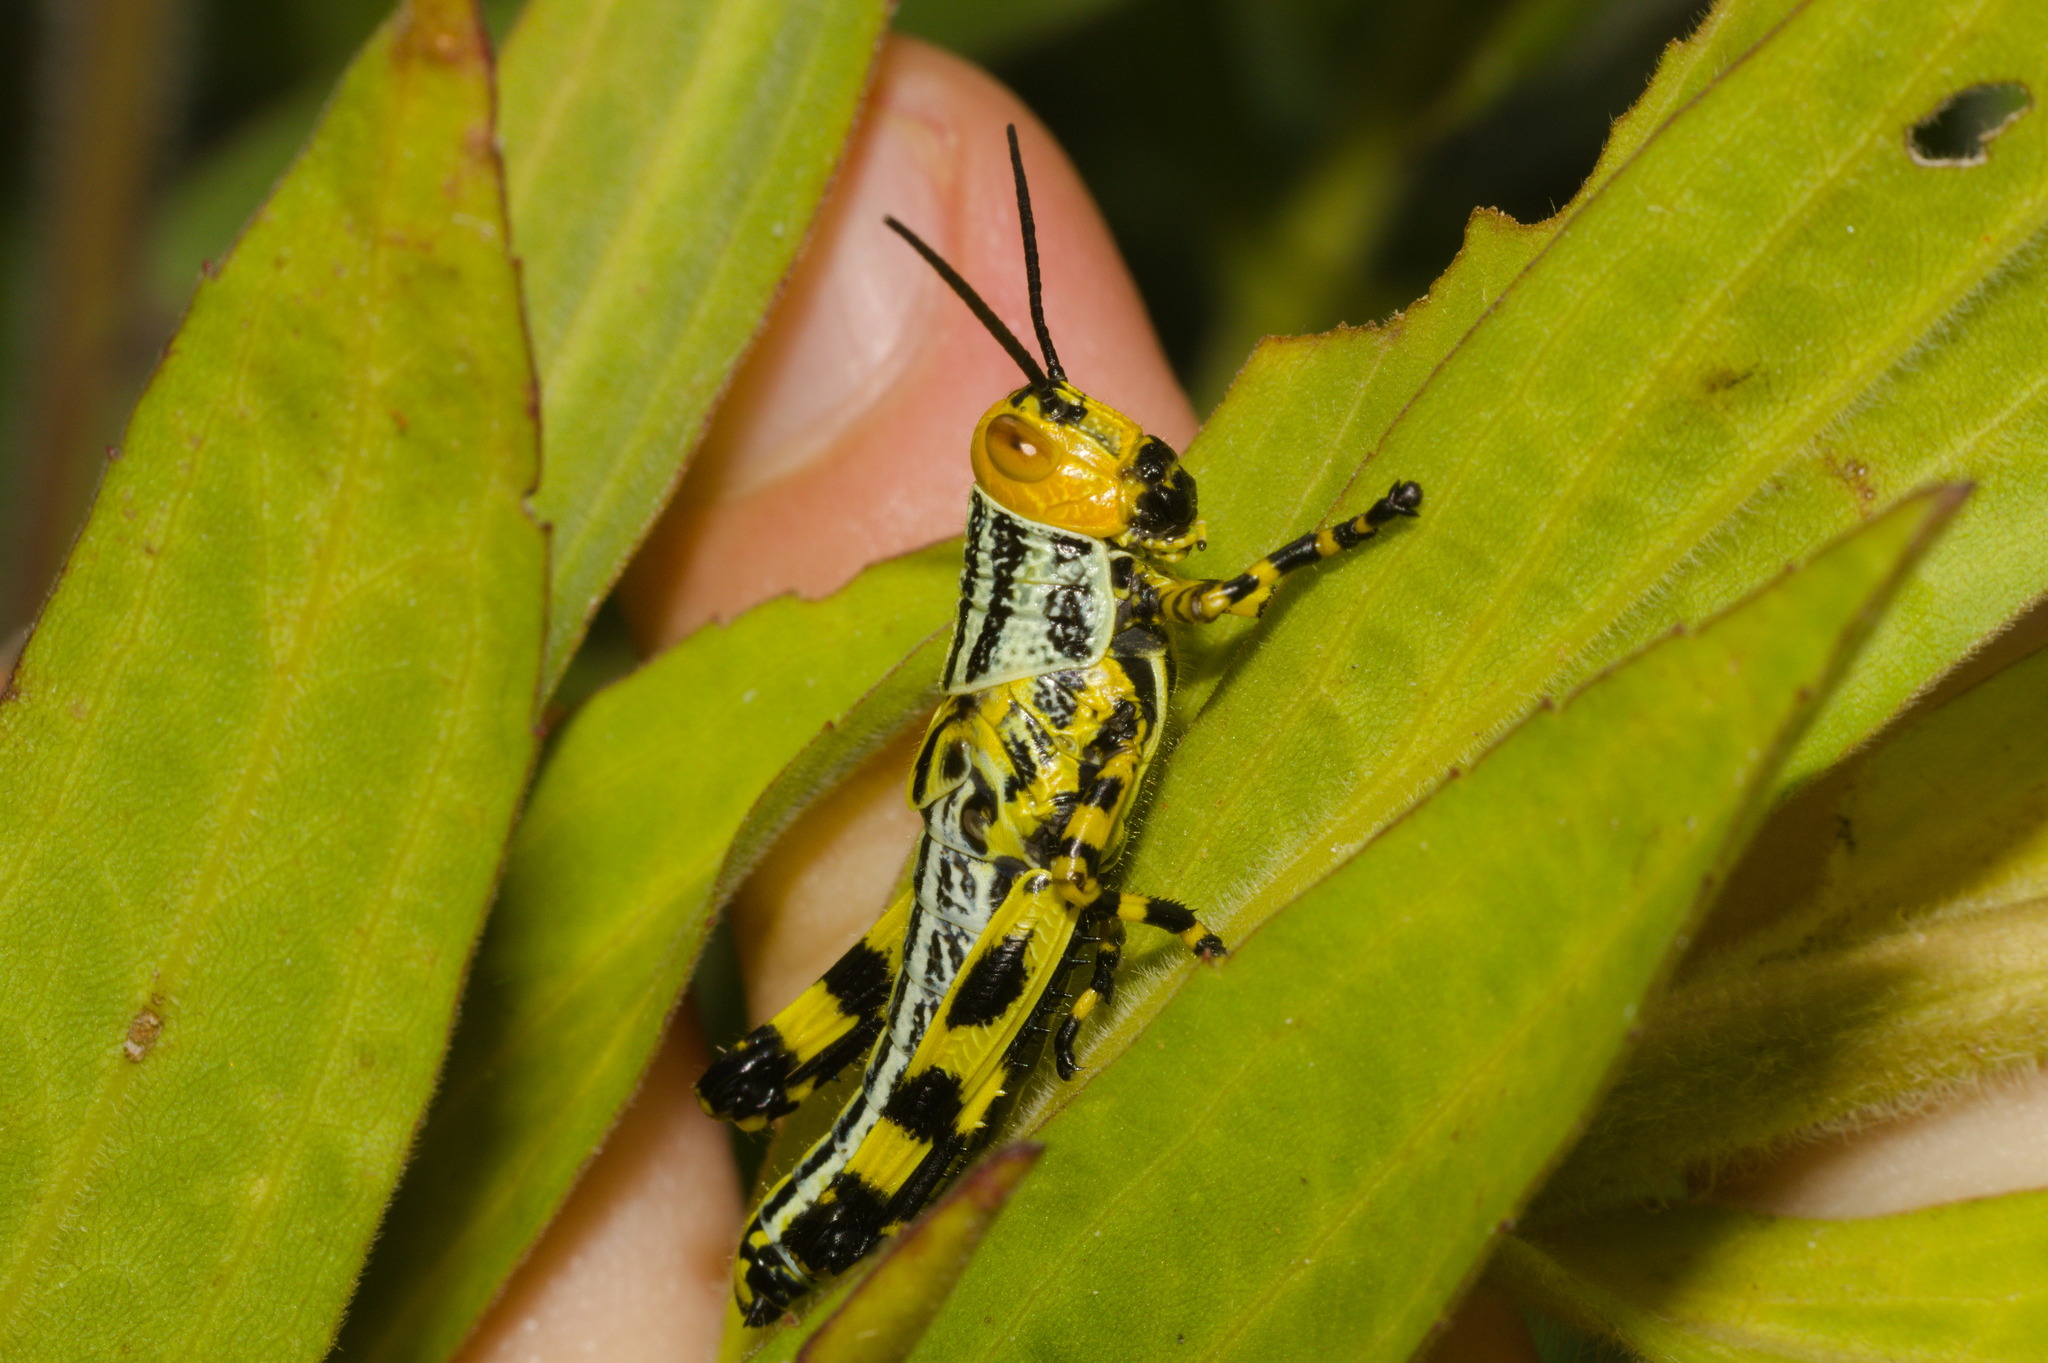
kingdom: Animalia
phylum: Arthropoda
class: Insecta
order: Orthoptera
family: Romaleidae
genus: Zoniopoda
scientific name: Zoniopoda tarsata
